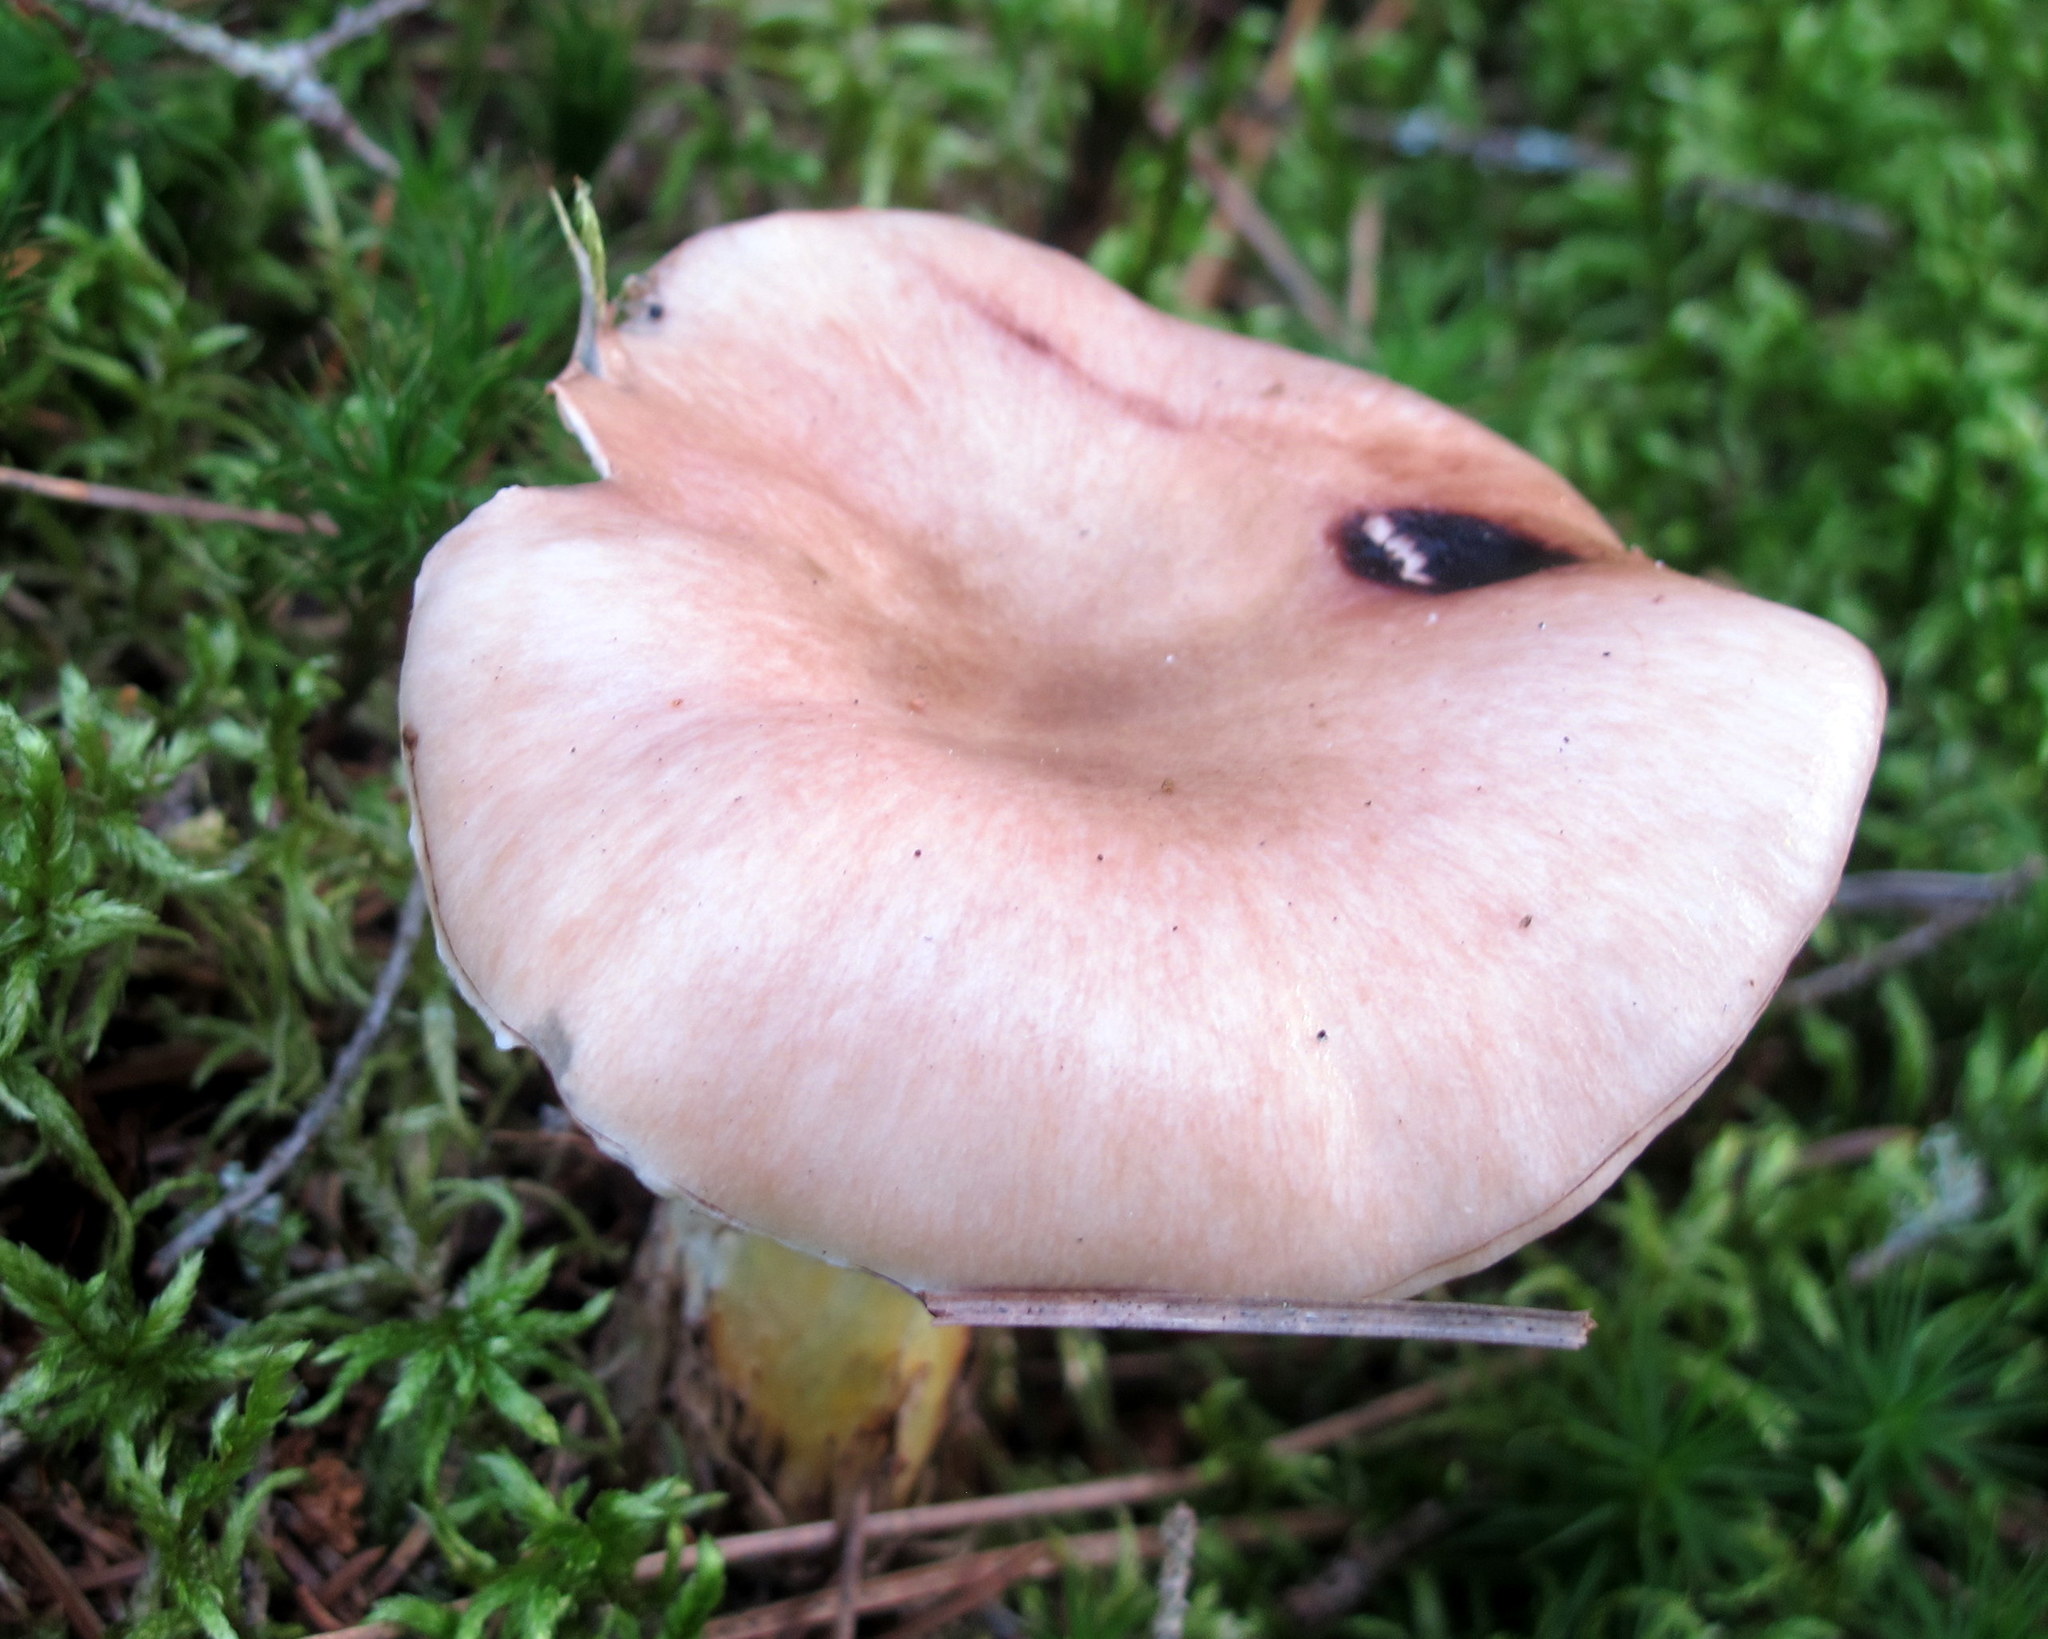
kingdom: Fungi
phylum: Basidiomycota
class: Agaricomycetes
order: Boletales
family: Gomphidiaceae
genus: Gomphidius
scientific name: Gomphidius glutinosus
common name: Slimy spike
